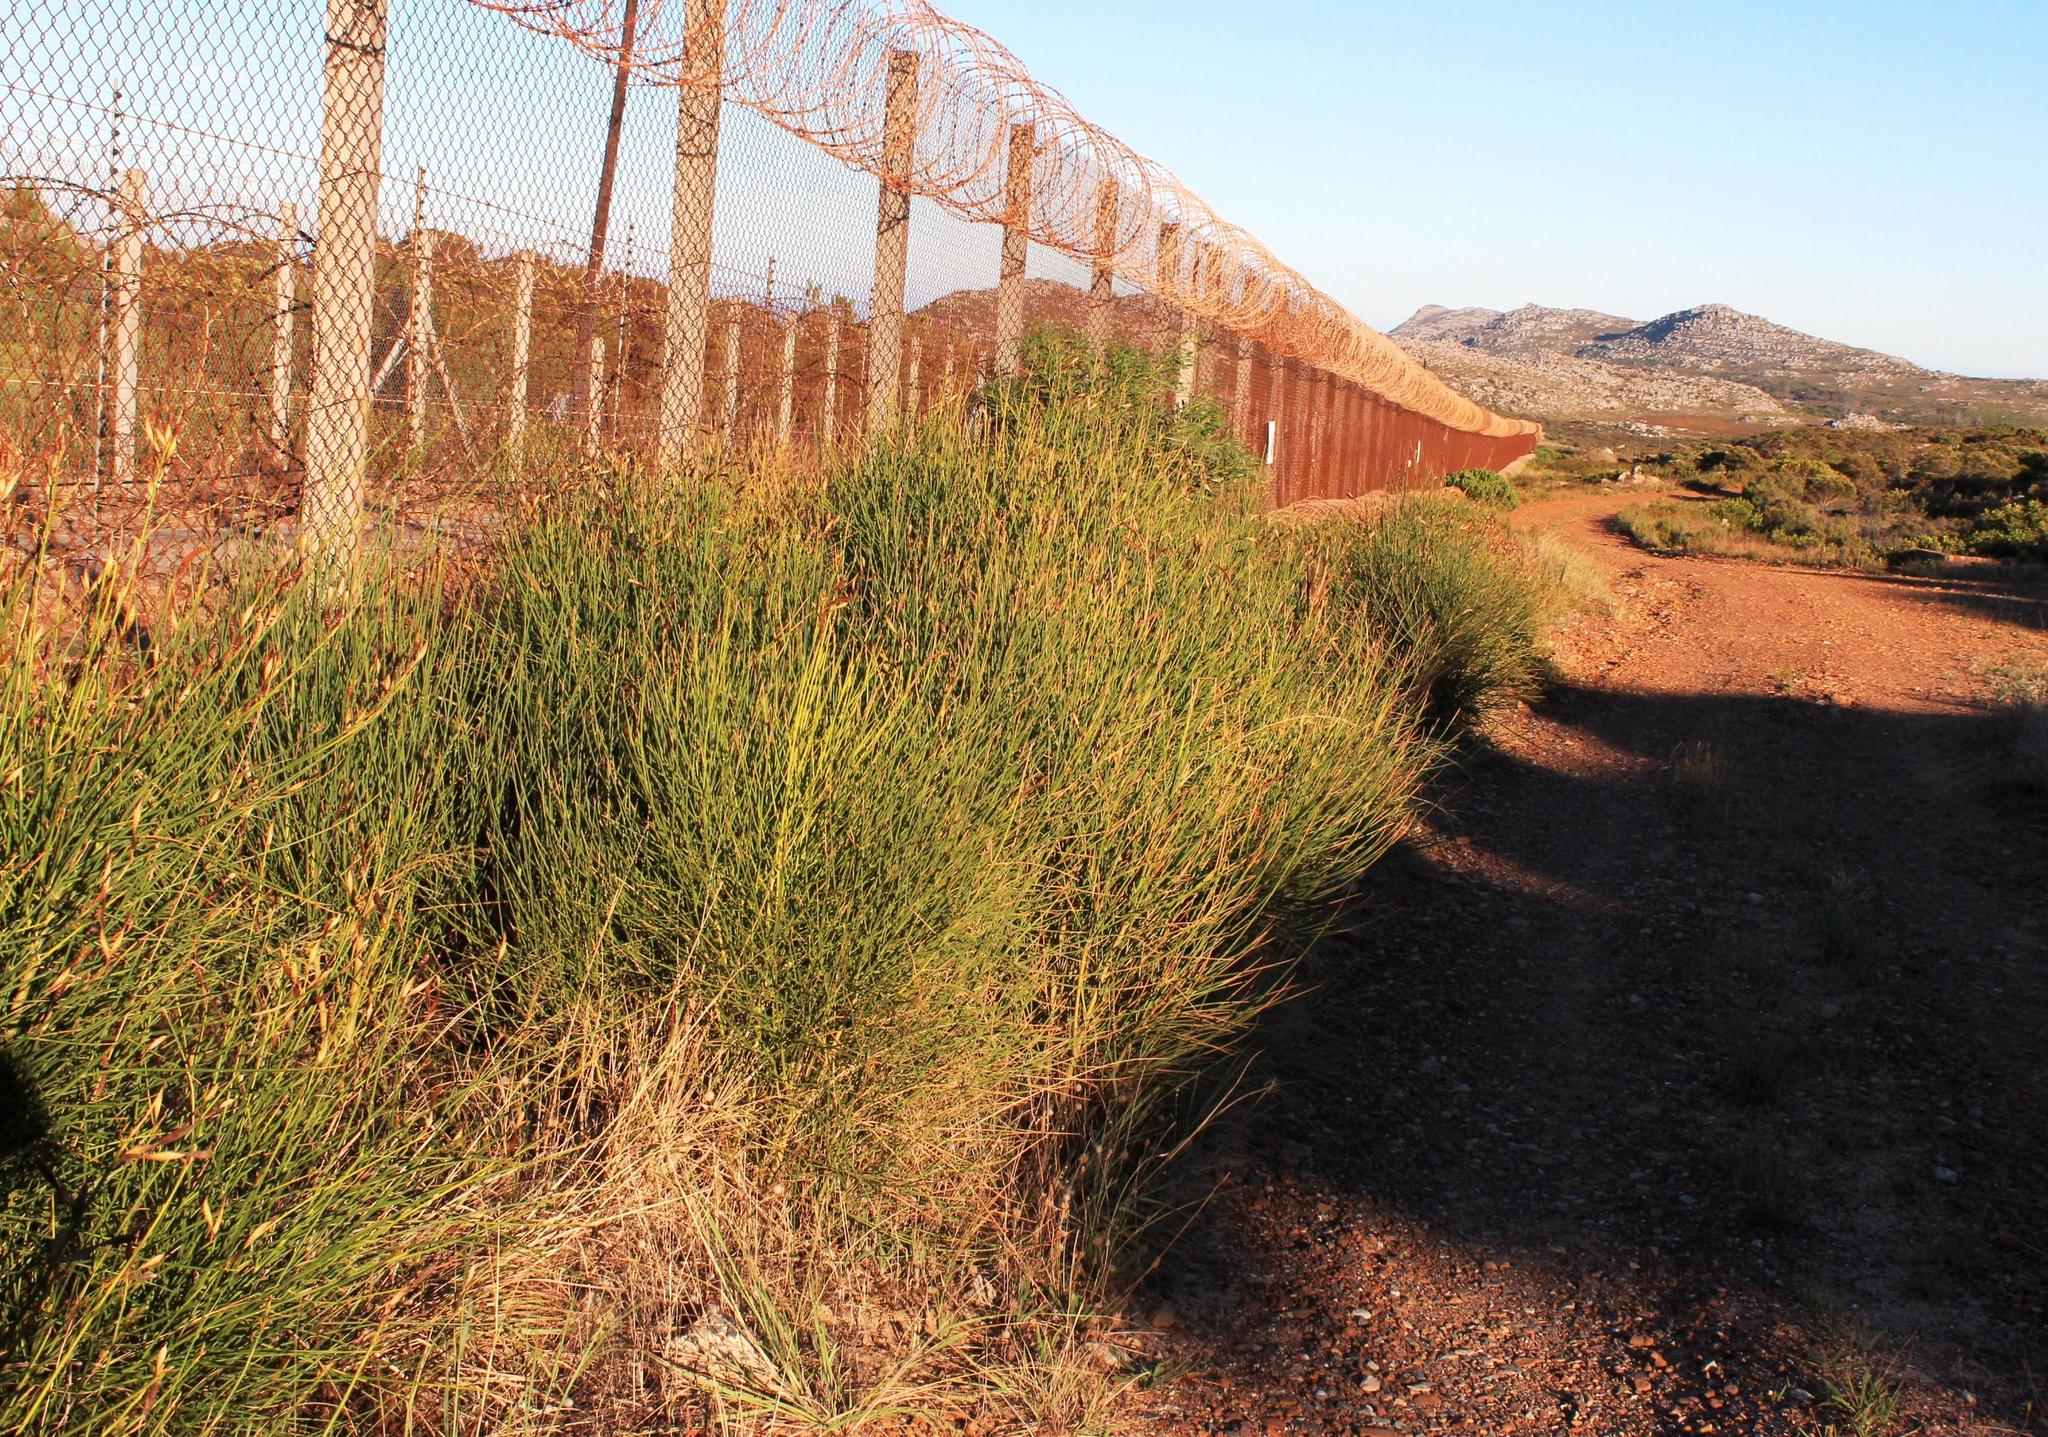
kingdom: Plantae
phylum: Tracheophyta
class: Magnoliopsida
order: Fabales
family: Fabaceae
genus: Spartium
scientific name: Spartium junceum
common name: Spanish broom
